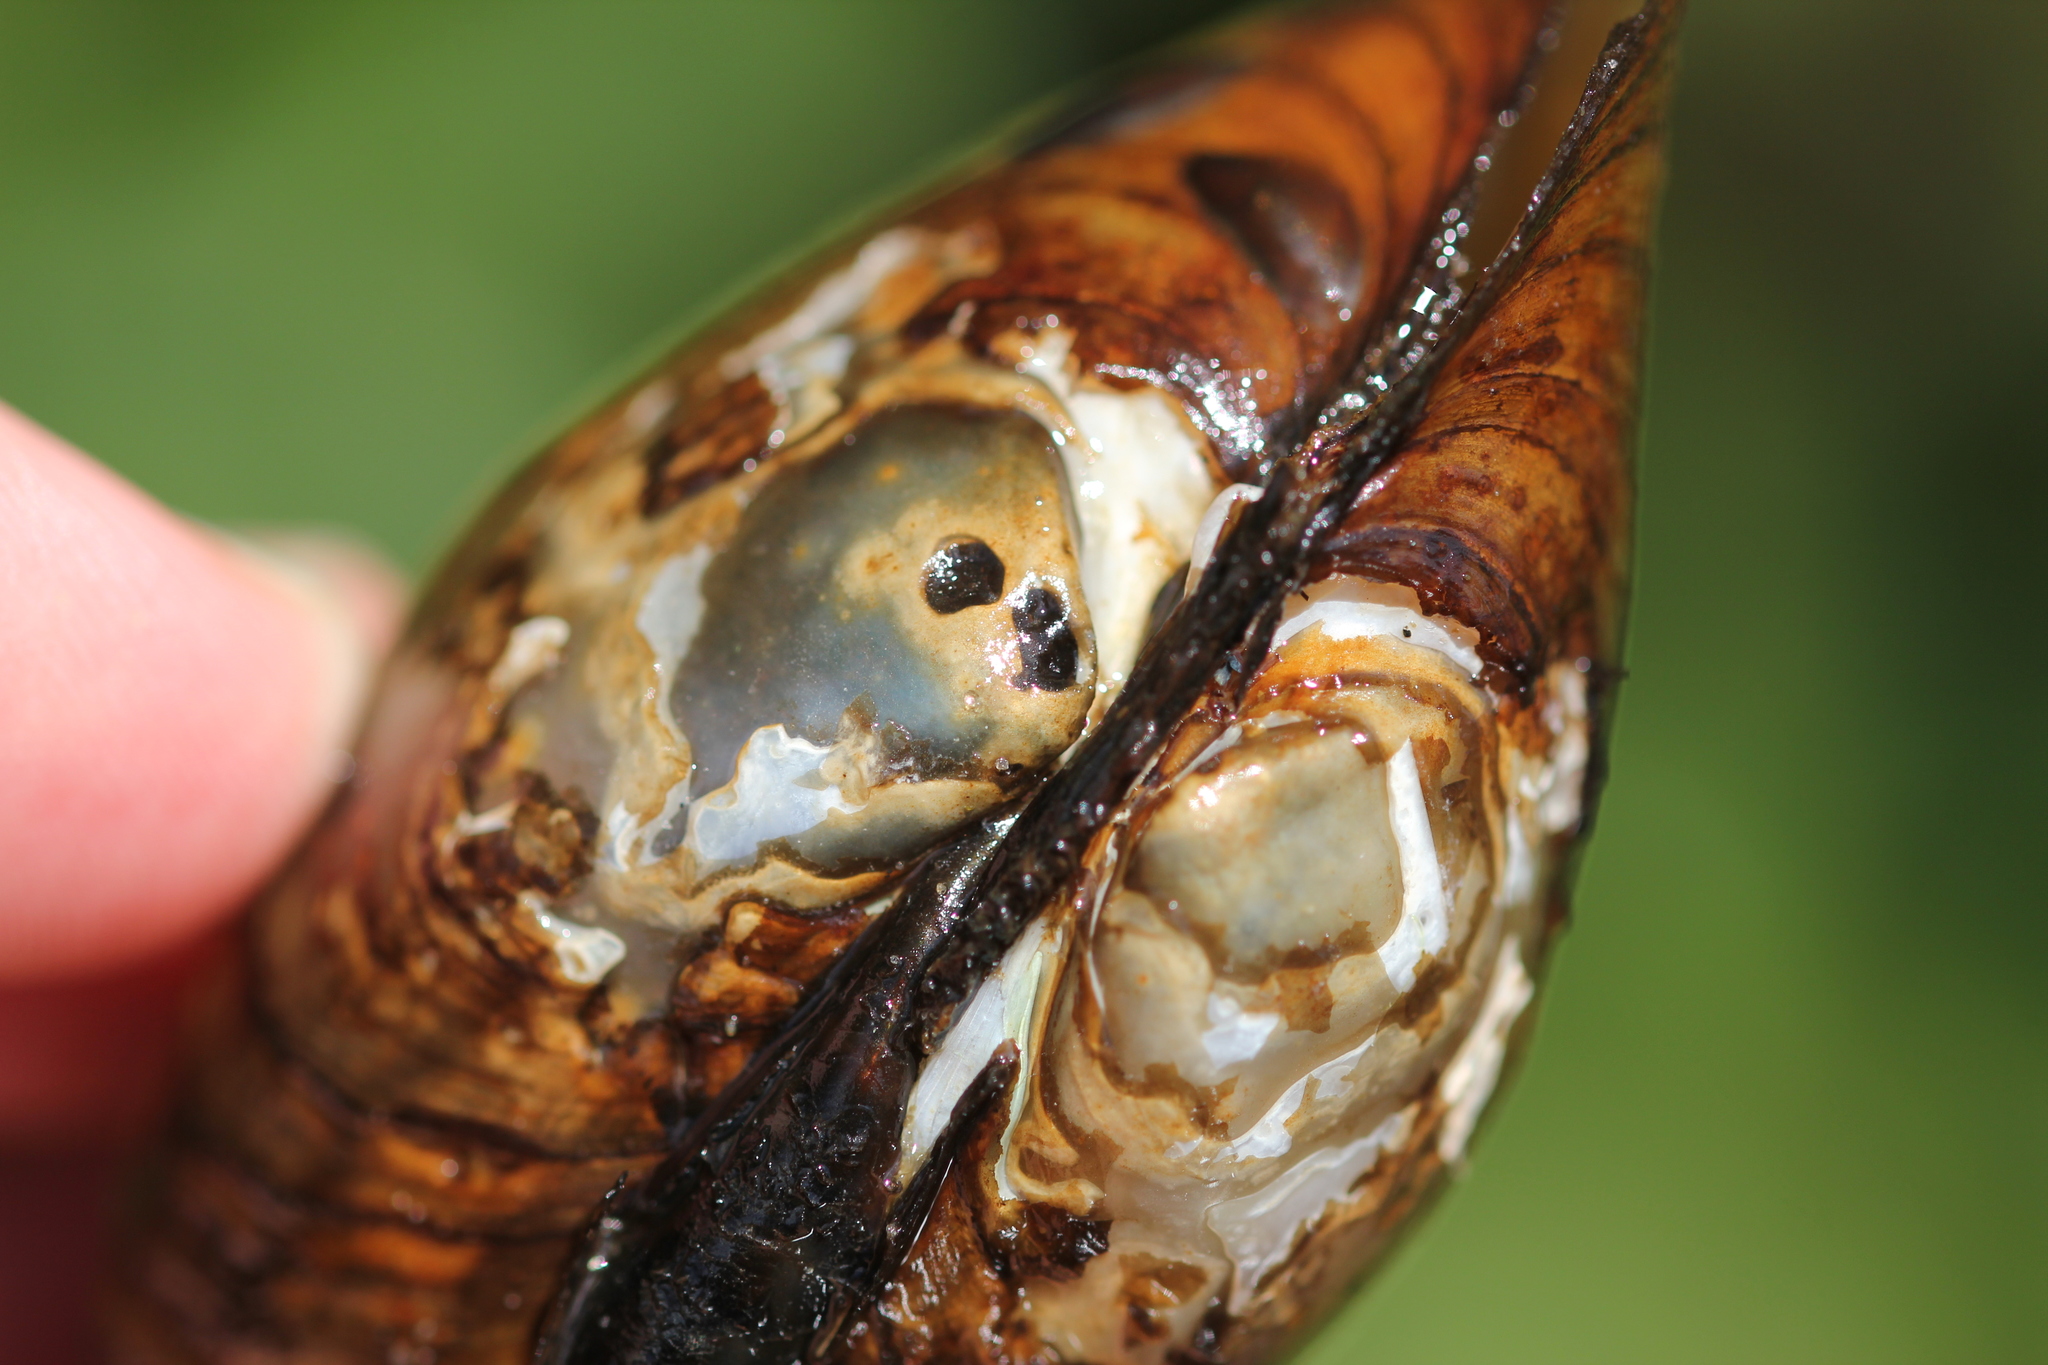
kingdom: Animalia
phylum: Mollusca
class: Bivalvia
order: Unionida
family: Unionidae
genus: Lampsilis
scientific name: Lampsilis cardium
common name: Plain pocketbook
